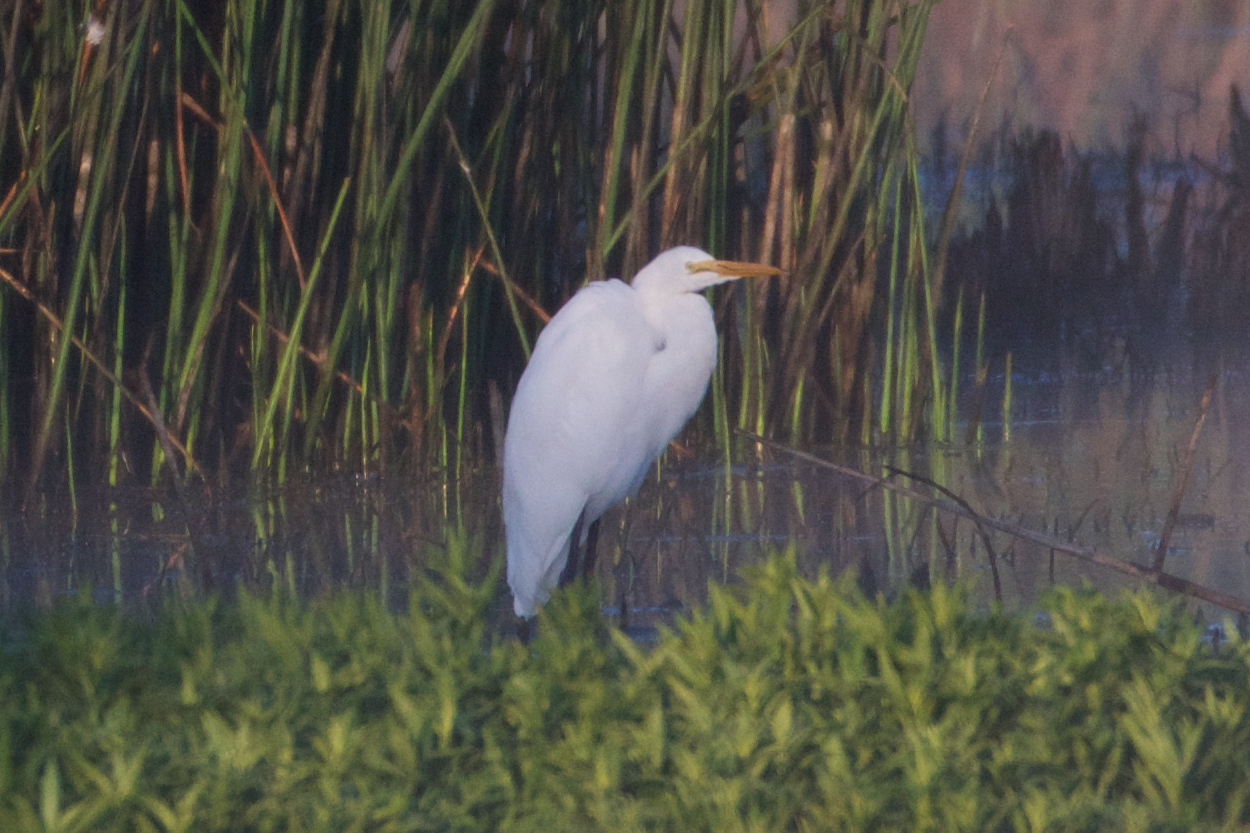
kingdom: Animalia
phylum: Chordata
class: Aves
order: Pelecaniformes
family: Ardeidae
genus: Ardea
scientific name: Ardea alba
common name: Great egret
